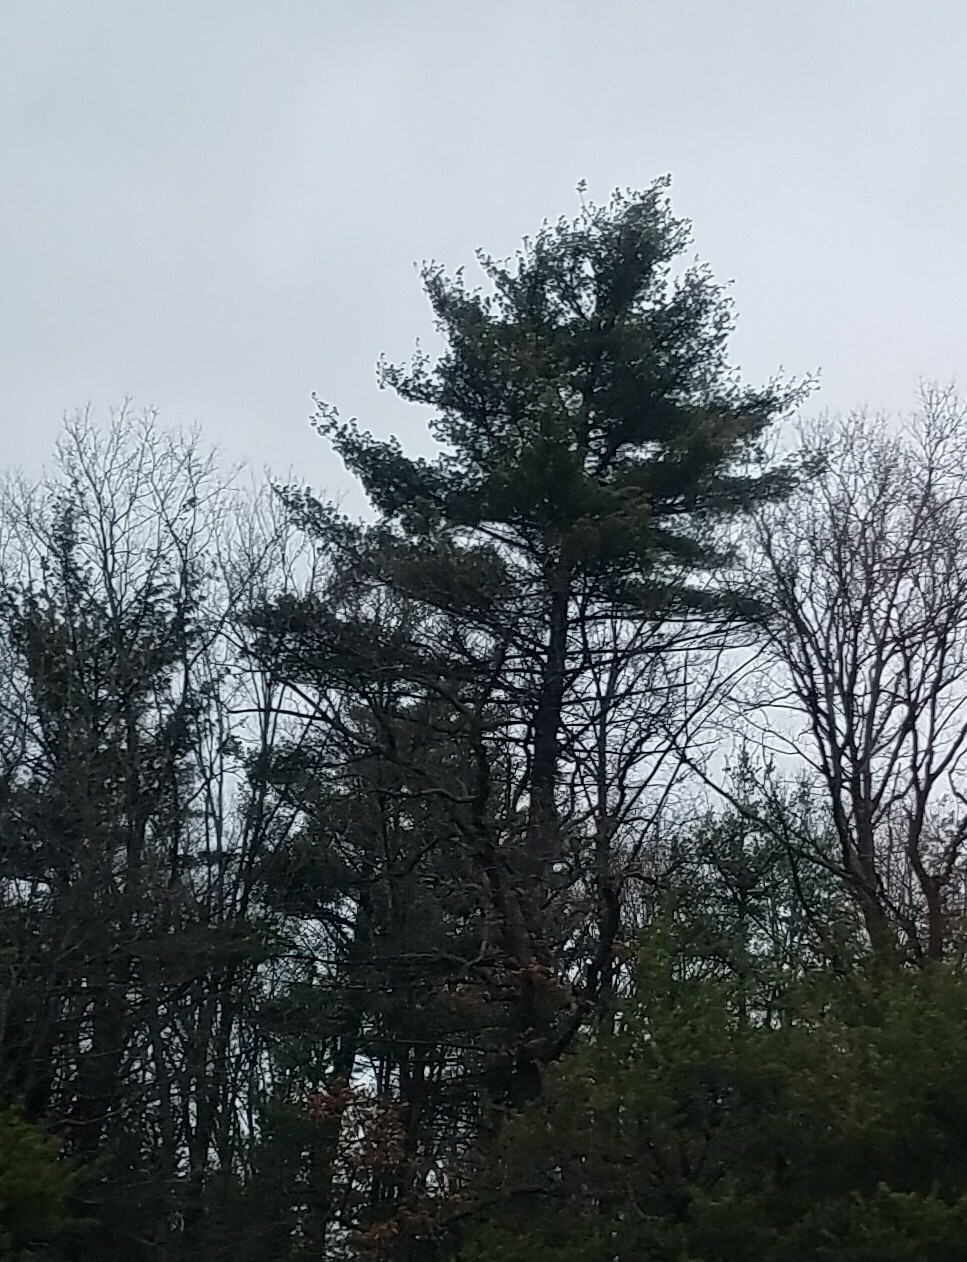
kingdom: Plantae
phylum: Tracheophyta
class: Pinopsida
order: Pinales
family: Pinaceae
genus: Pinus
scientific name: Pinus strobus
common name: Weymouth pine
